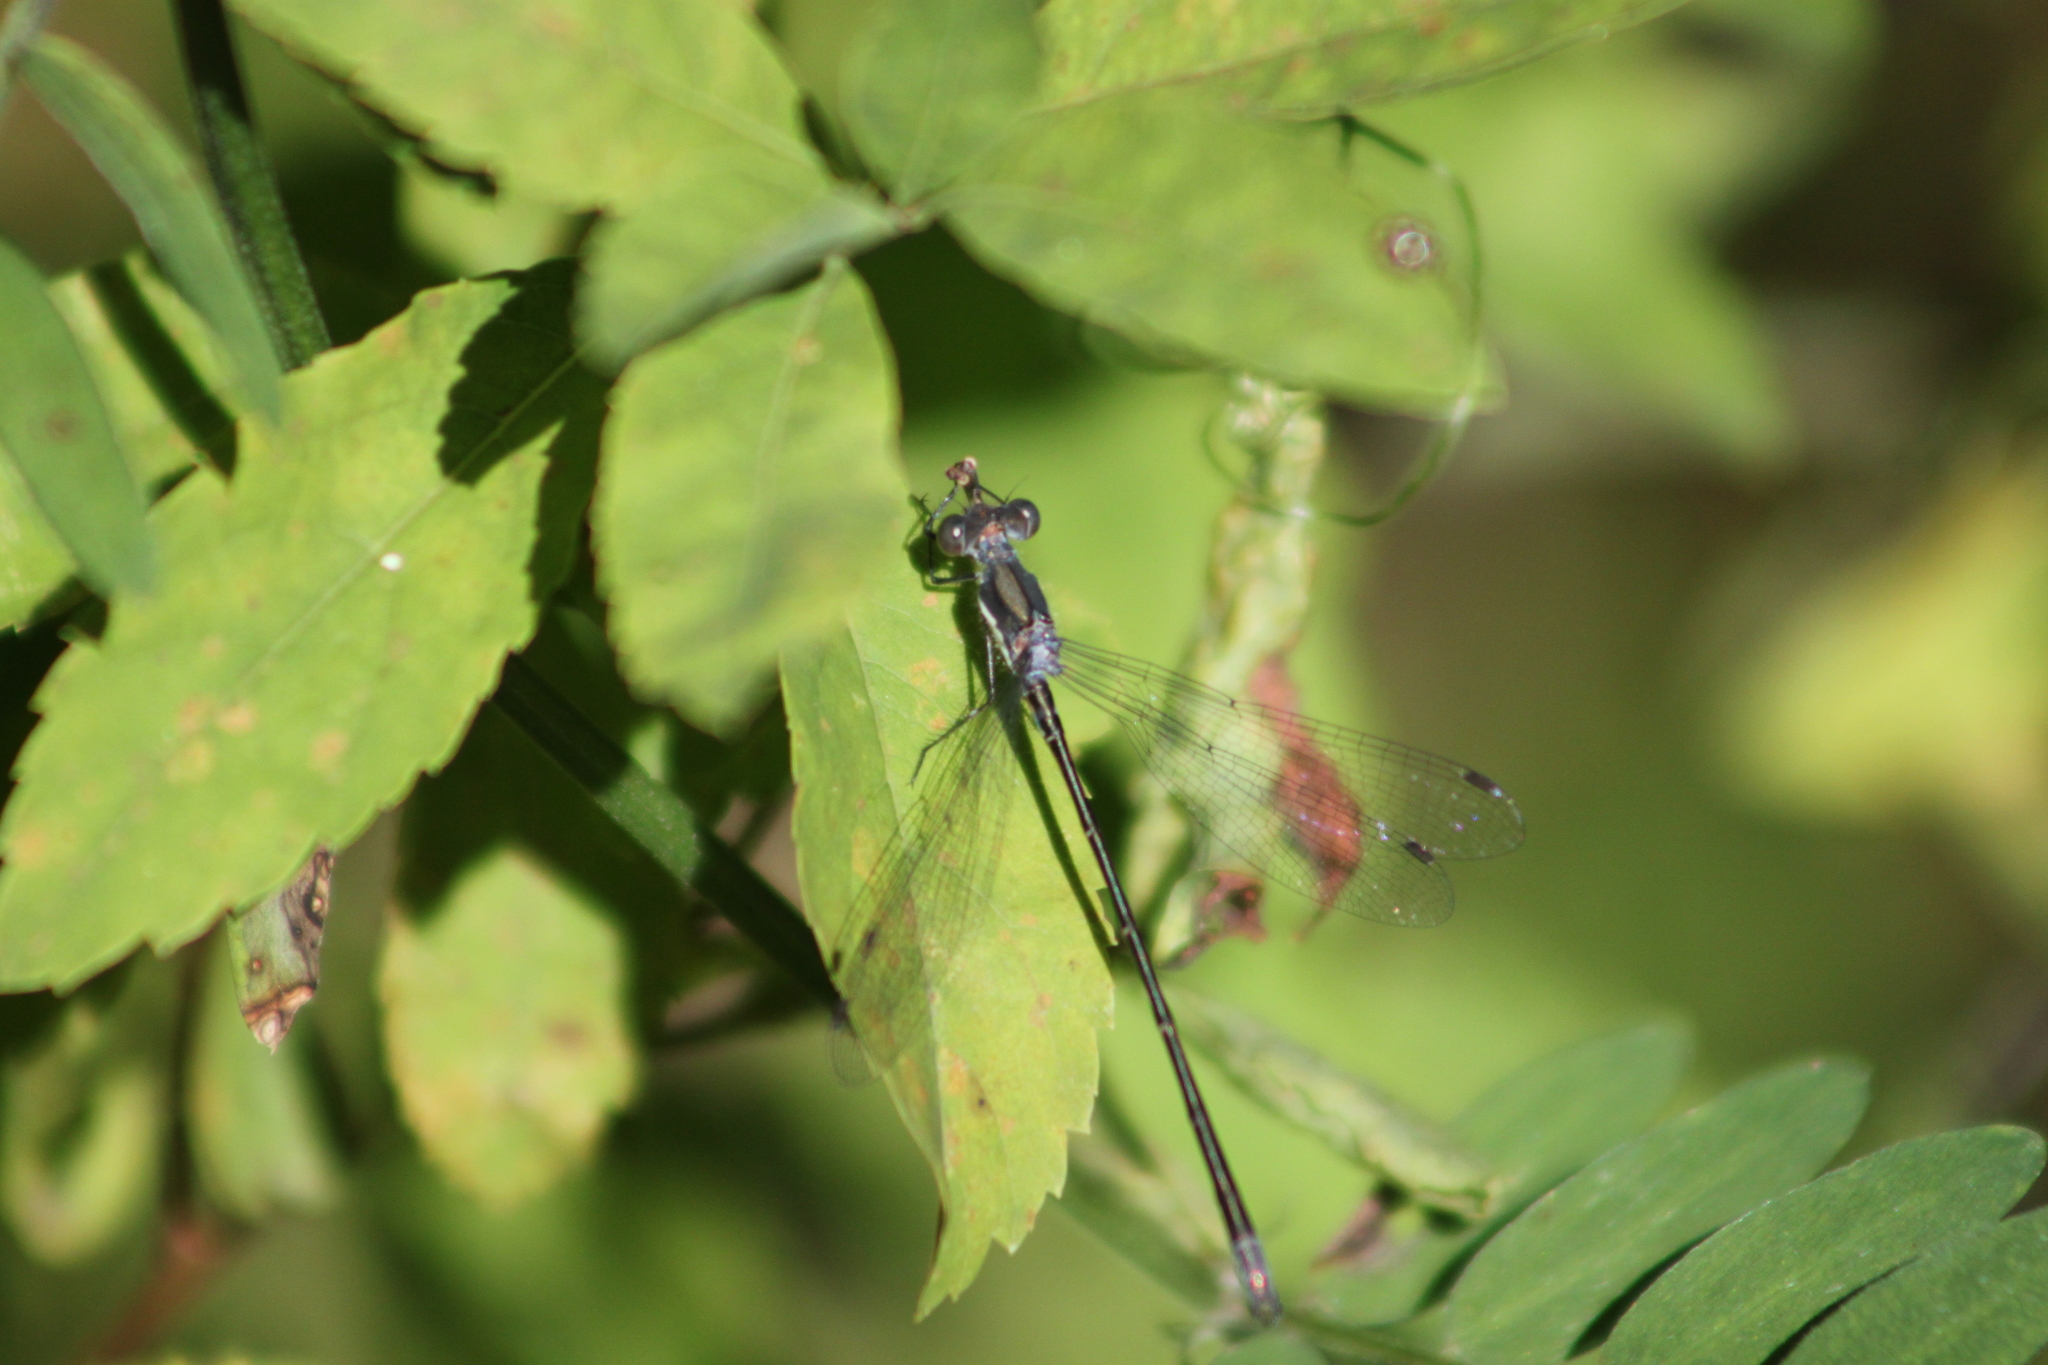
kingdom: Animalia
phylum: Arthropoda
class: Insecta
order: Odonata
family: Lestidae
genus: Lestes
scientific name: Lestes
